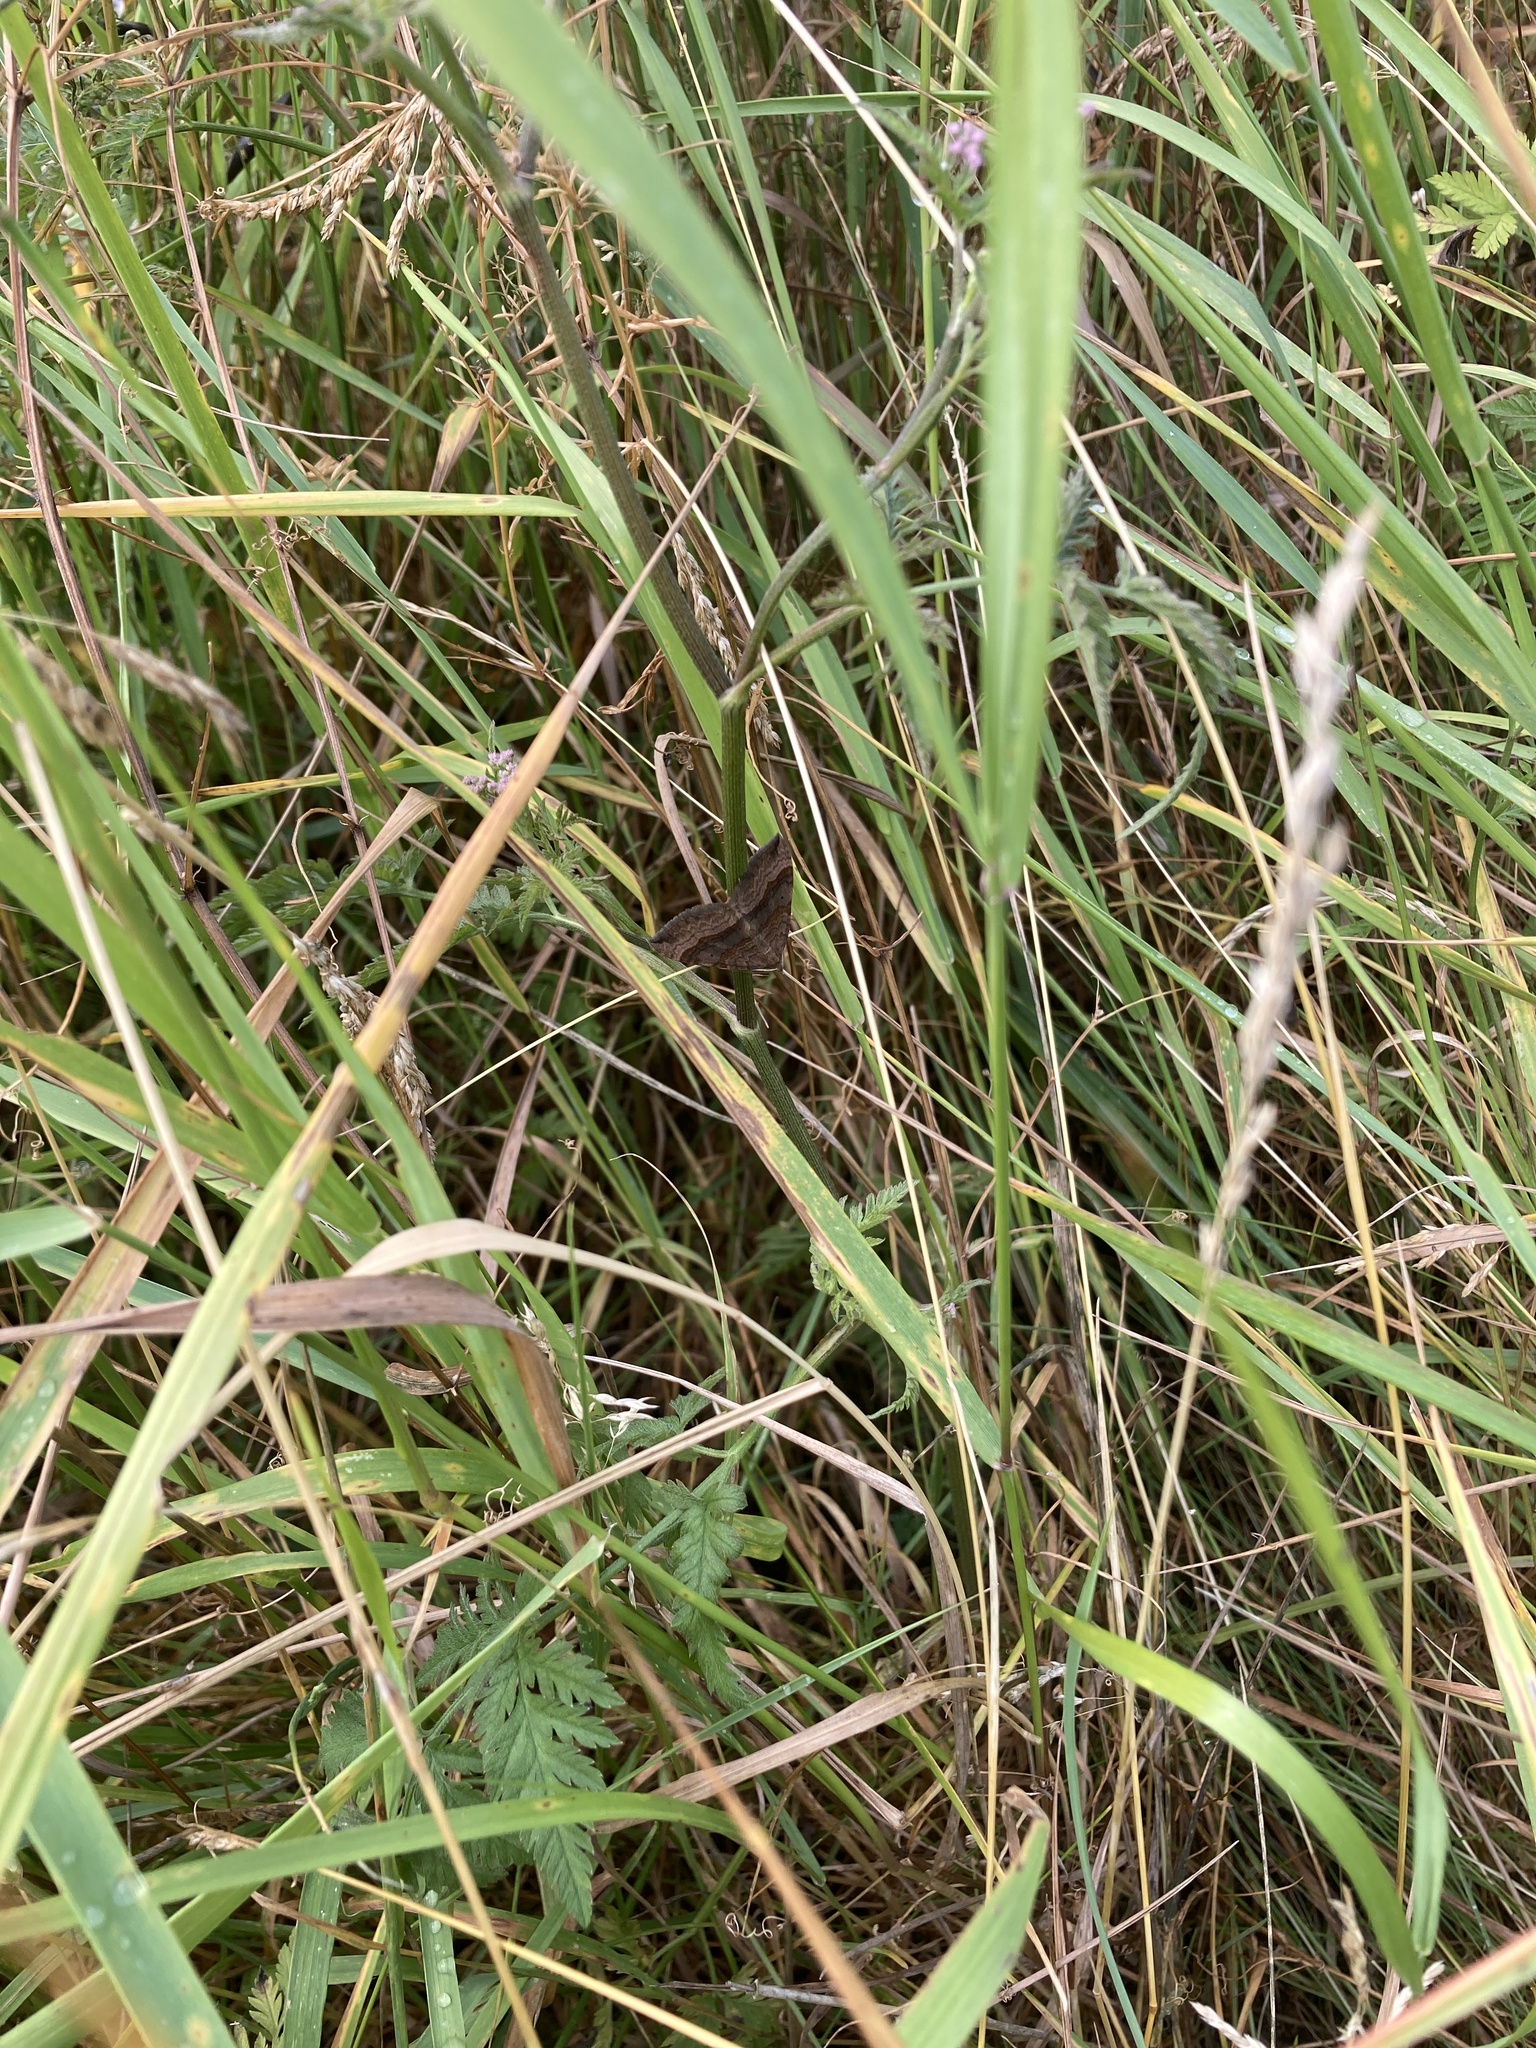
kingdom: Animalia
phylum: Arthropoda
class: Insecta
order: Lepidoptera
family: Geometridae
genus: Scotopteryx
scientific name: Scotopteryx chenopodiata
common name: Shaded broad-bar
